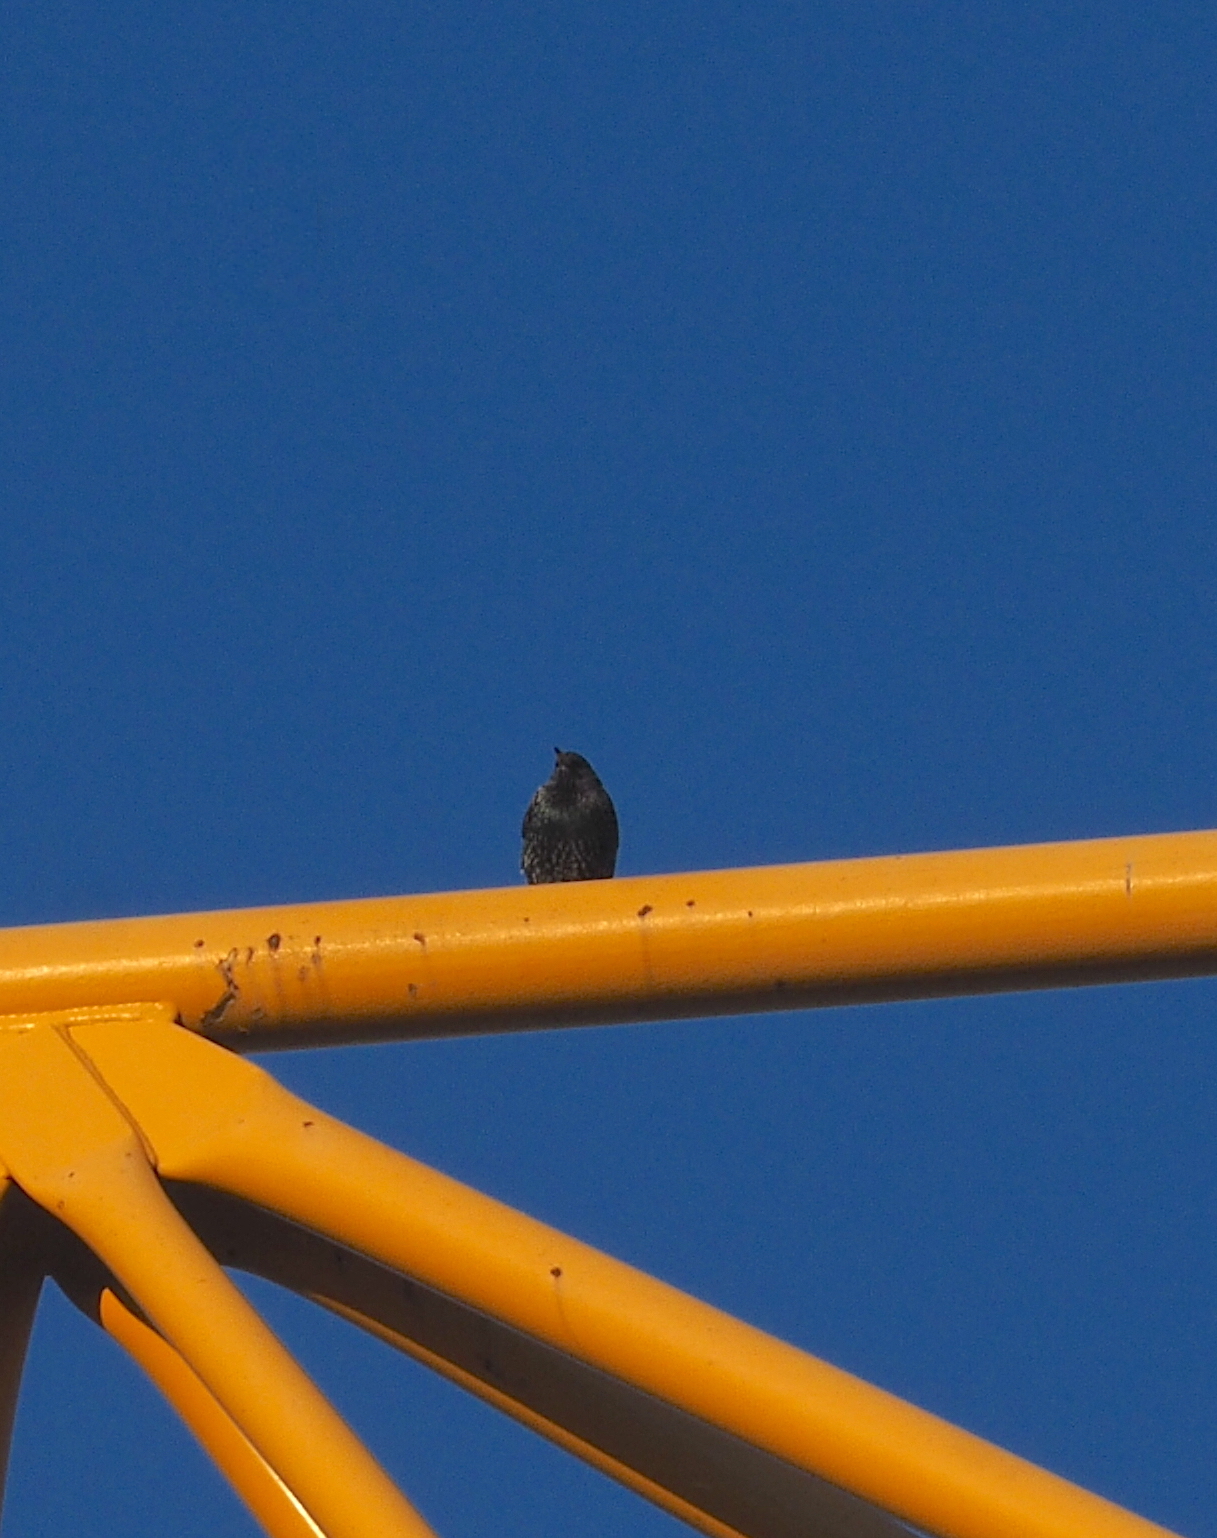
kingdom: Animalia
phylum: Chordata
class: Aves
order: Passeriformes
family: Sturnidae
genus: Sturnus
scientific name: Sturnus vulgaris
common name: Common starling
